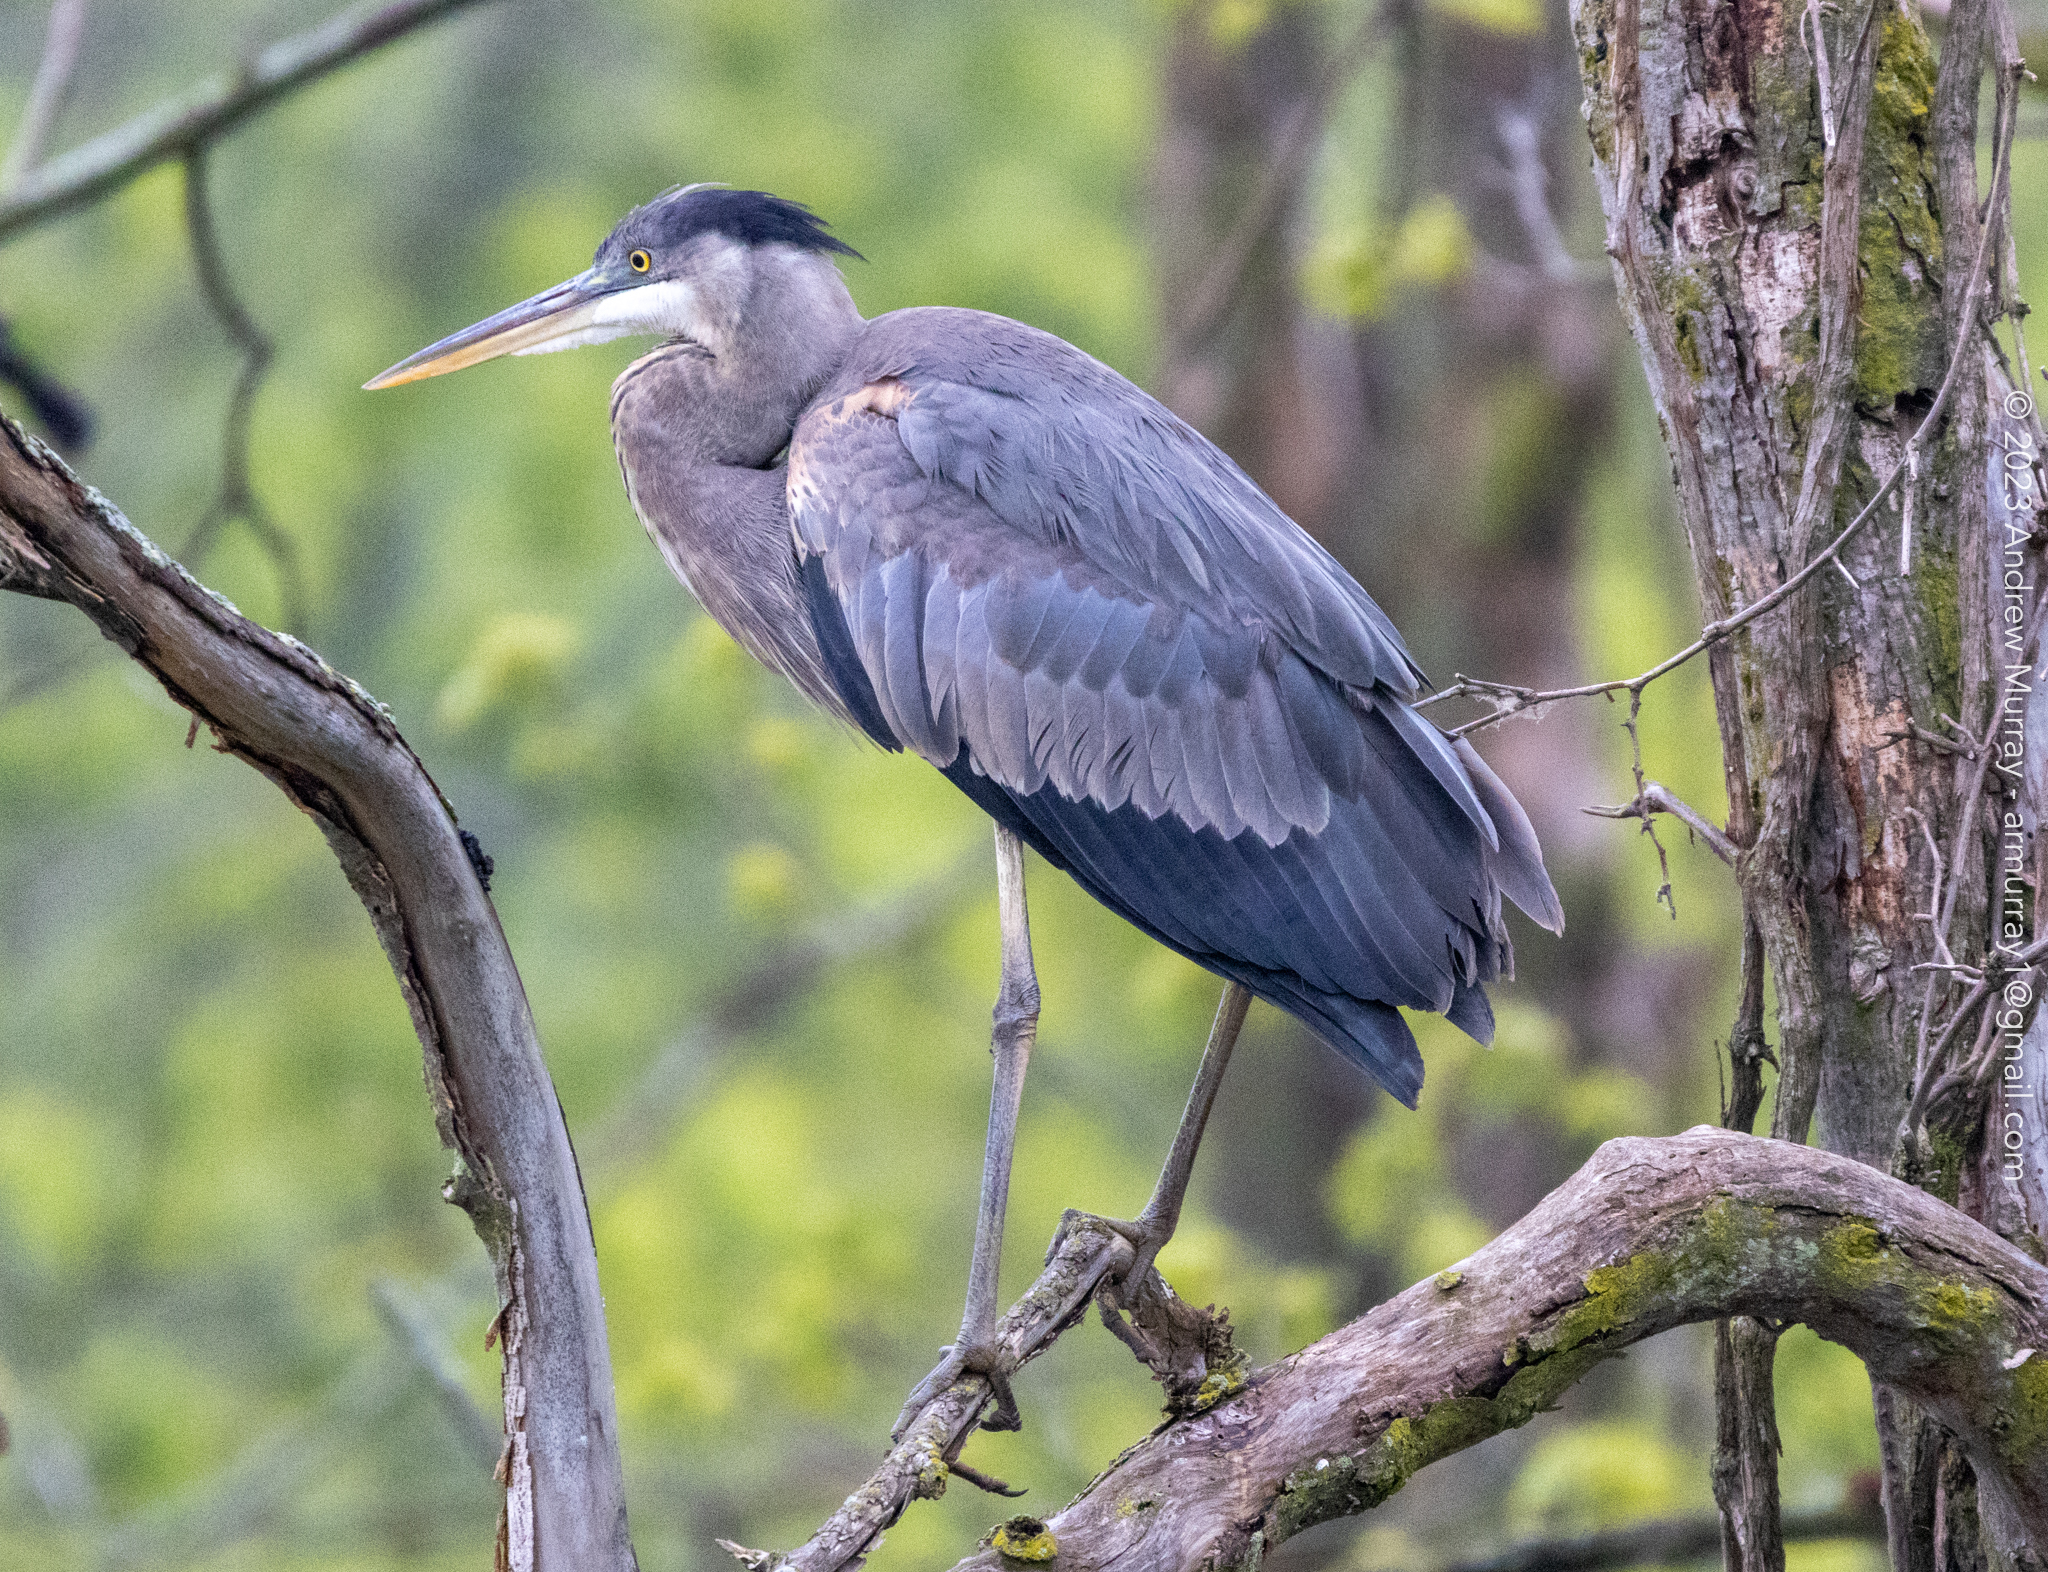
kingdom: Animalia
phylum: Chordata
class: Aves
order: Pelecaniformes
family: Ardeidae
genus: Ardea
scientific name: Ardea herodias
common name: Great blue heron
